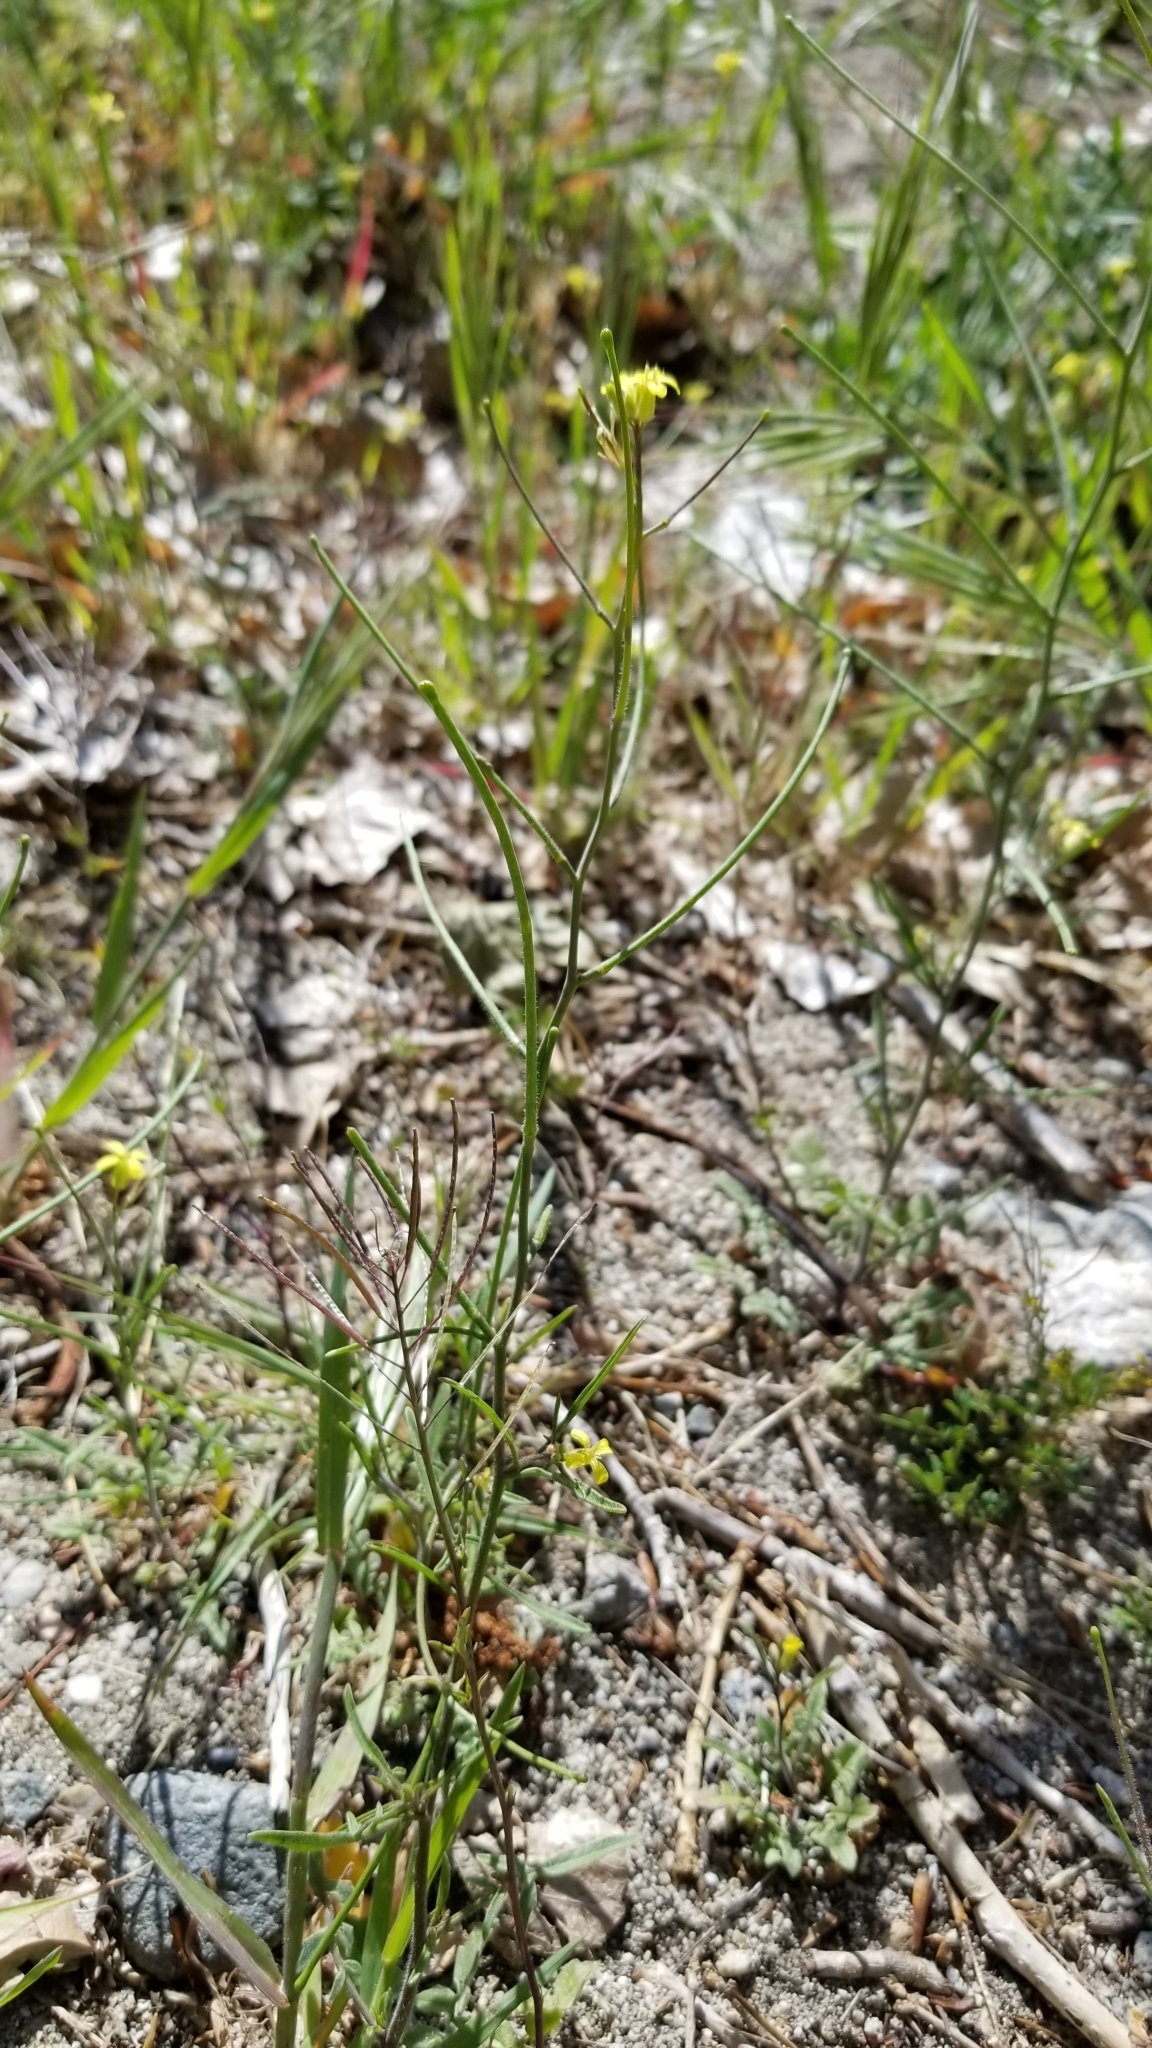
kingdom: Plantae
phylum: Tracheophyta
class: Magnoliopsida
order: Brassicales
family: Brassicaceae
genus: Sisymbrium
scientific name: Sisymbrium orientale
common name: Eastern rocket
